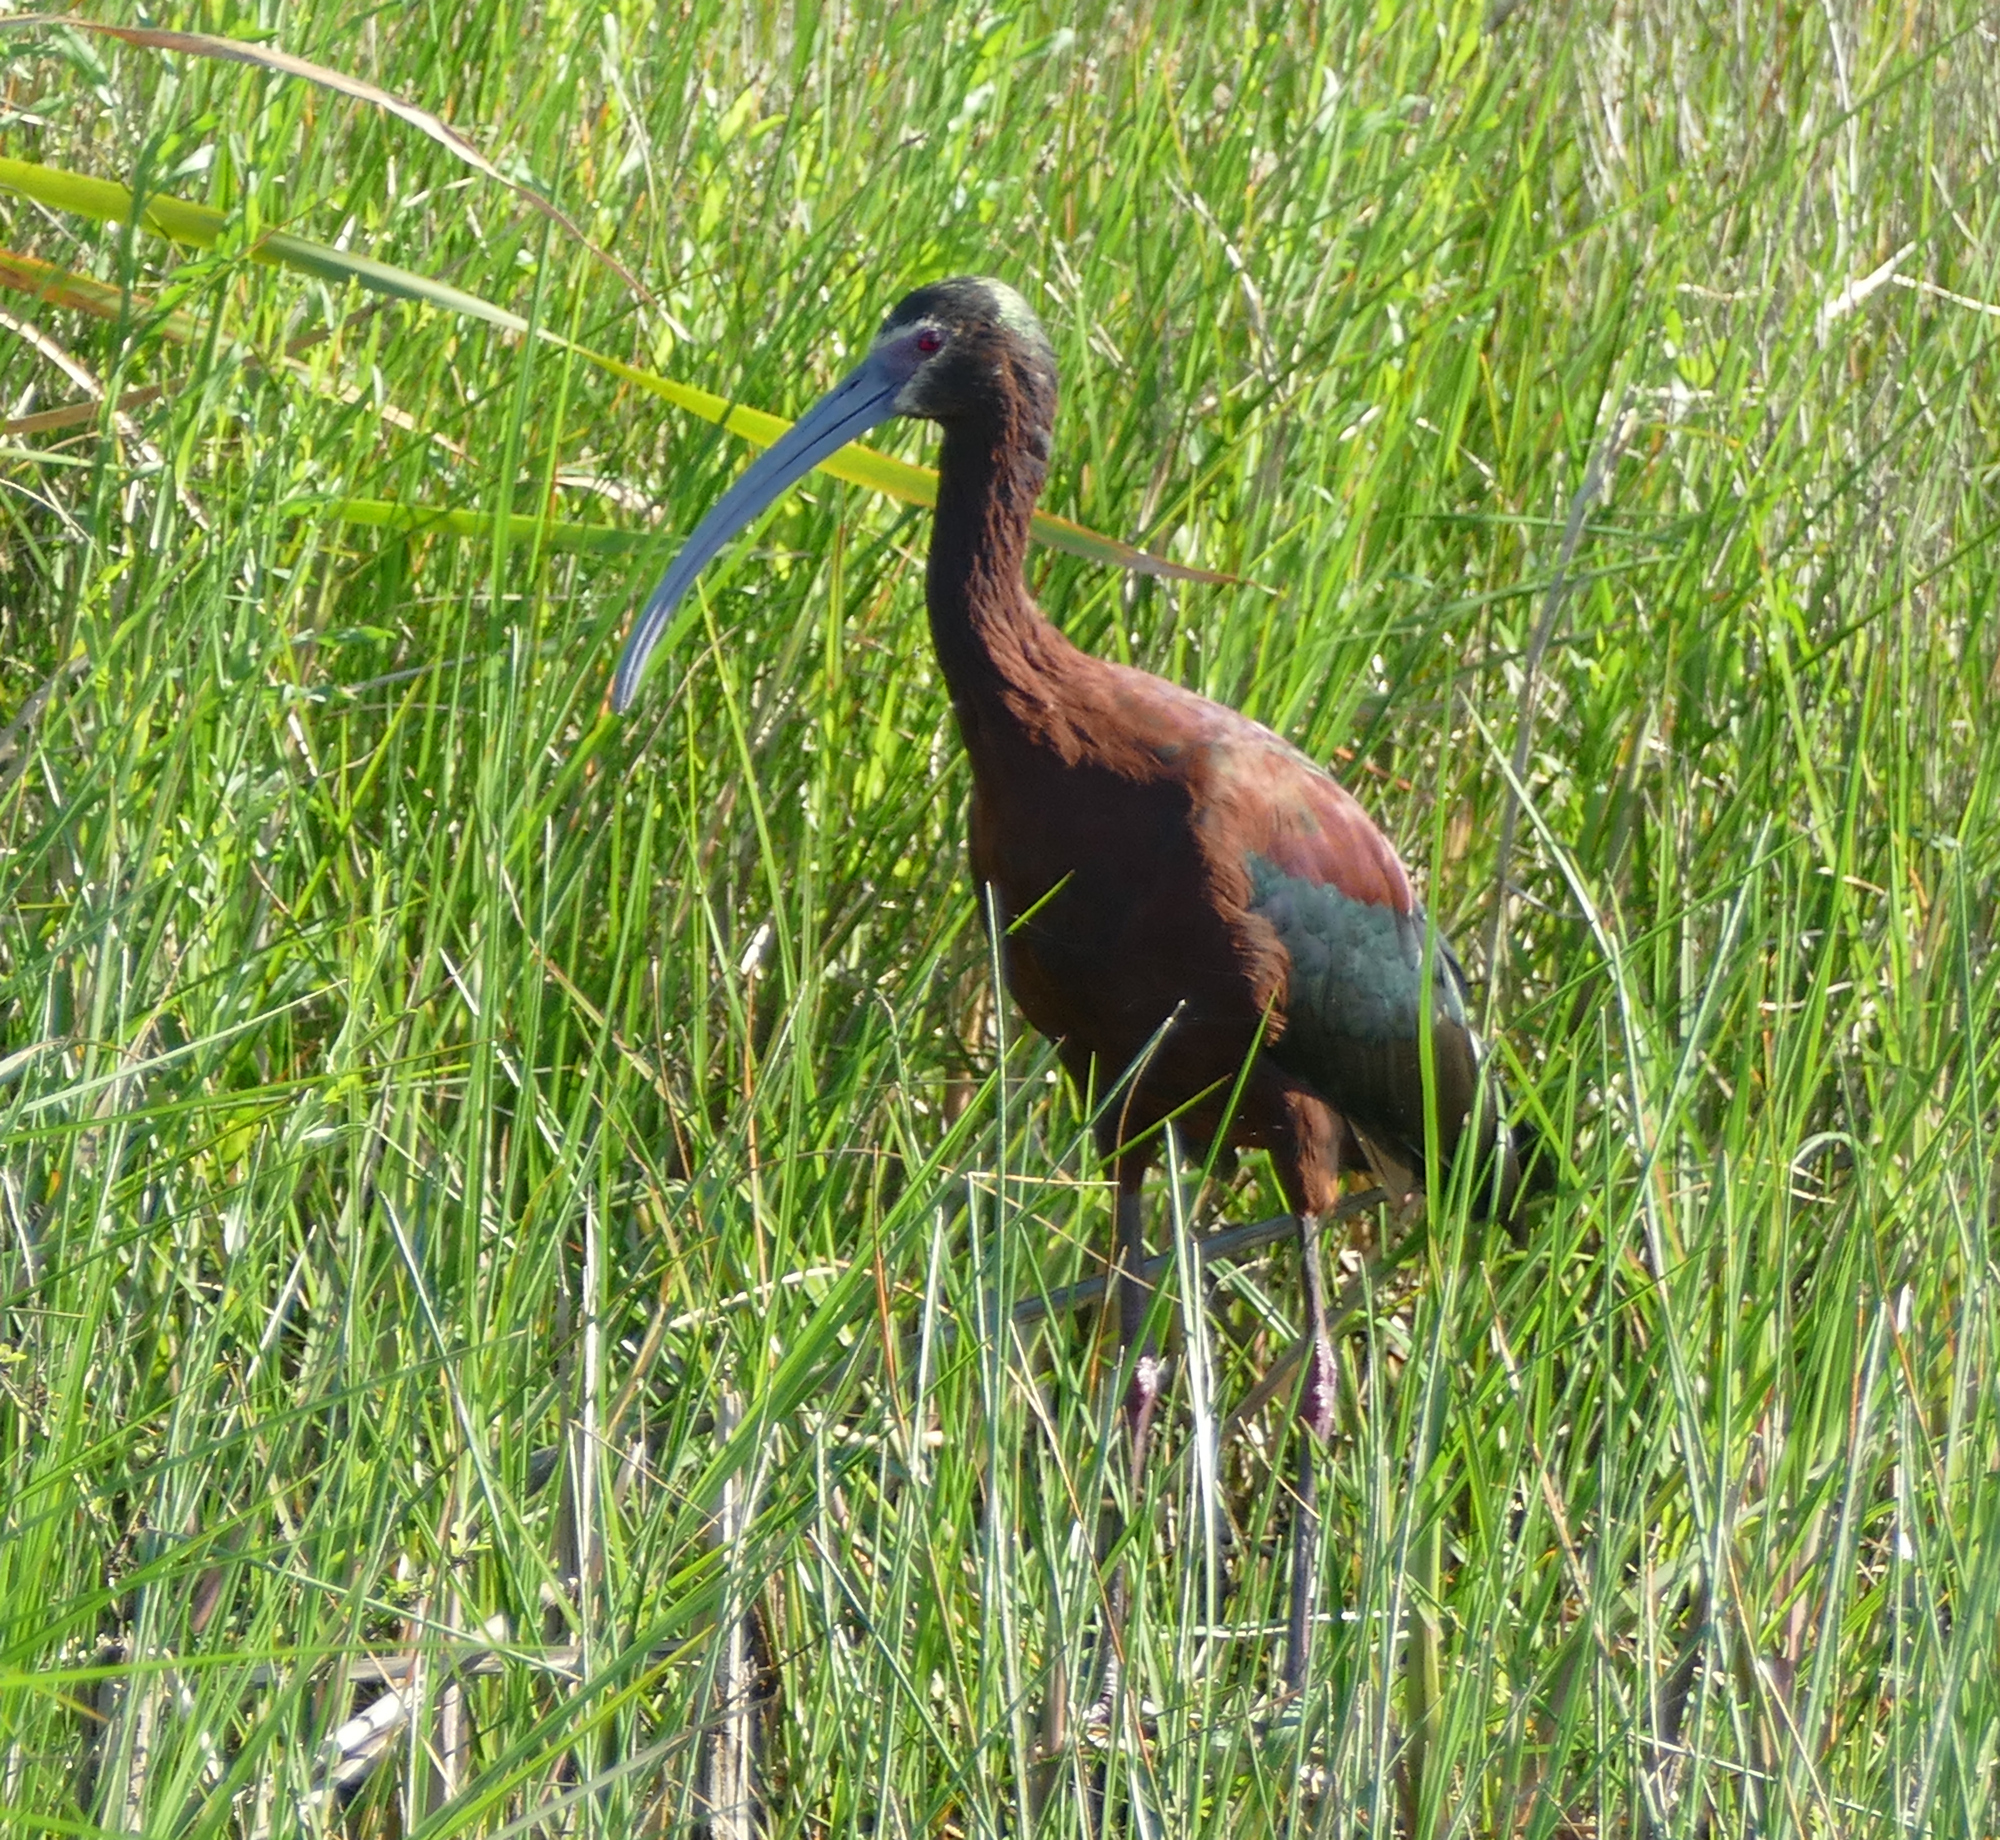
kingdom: Animalia
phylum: Chordata
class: Aves
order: Pelecaniformes
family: Threskiornithidae
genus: Plegadis
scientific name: Plegadis chihi
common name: White-faced ibis
